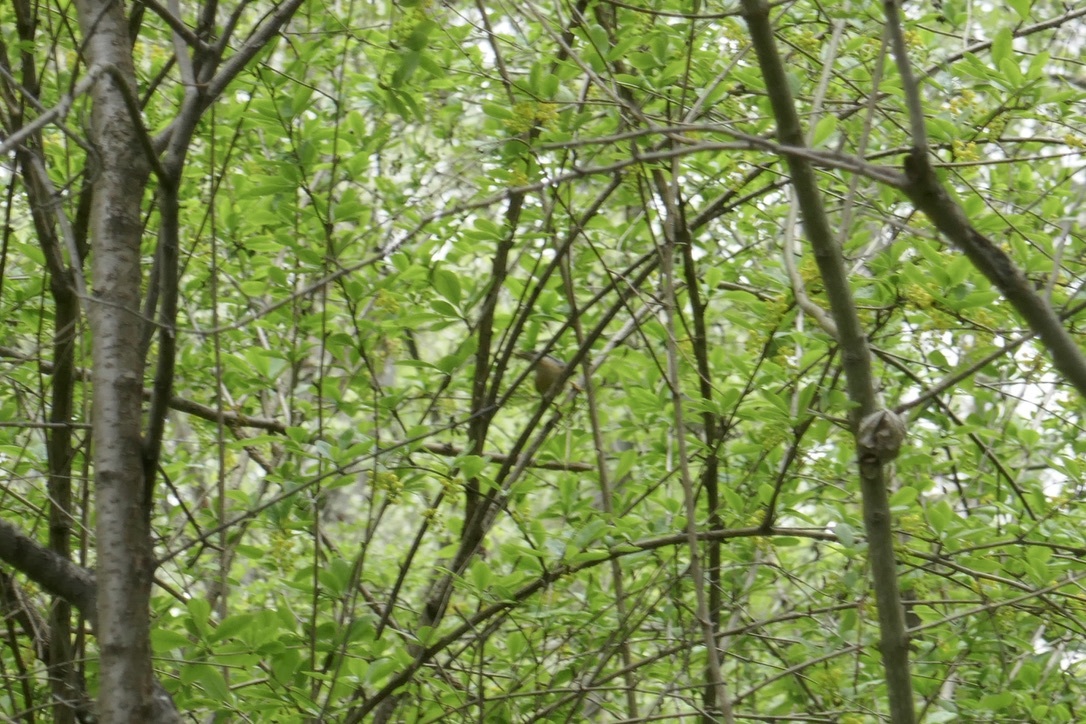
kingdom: Animalia
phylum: Chordata
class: Aves
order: Passeriformes
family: Sittidae
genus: Sitta
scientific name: Sitta europaea
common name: Eurasian nuthatch
